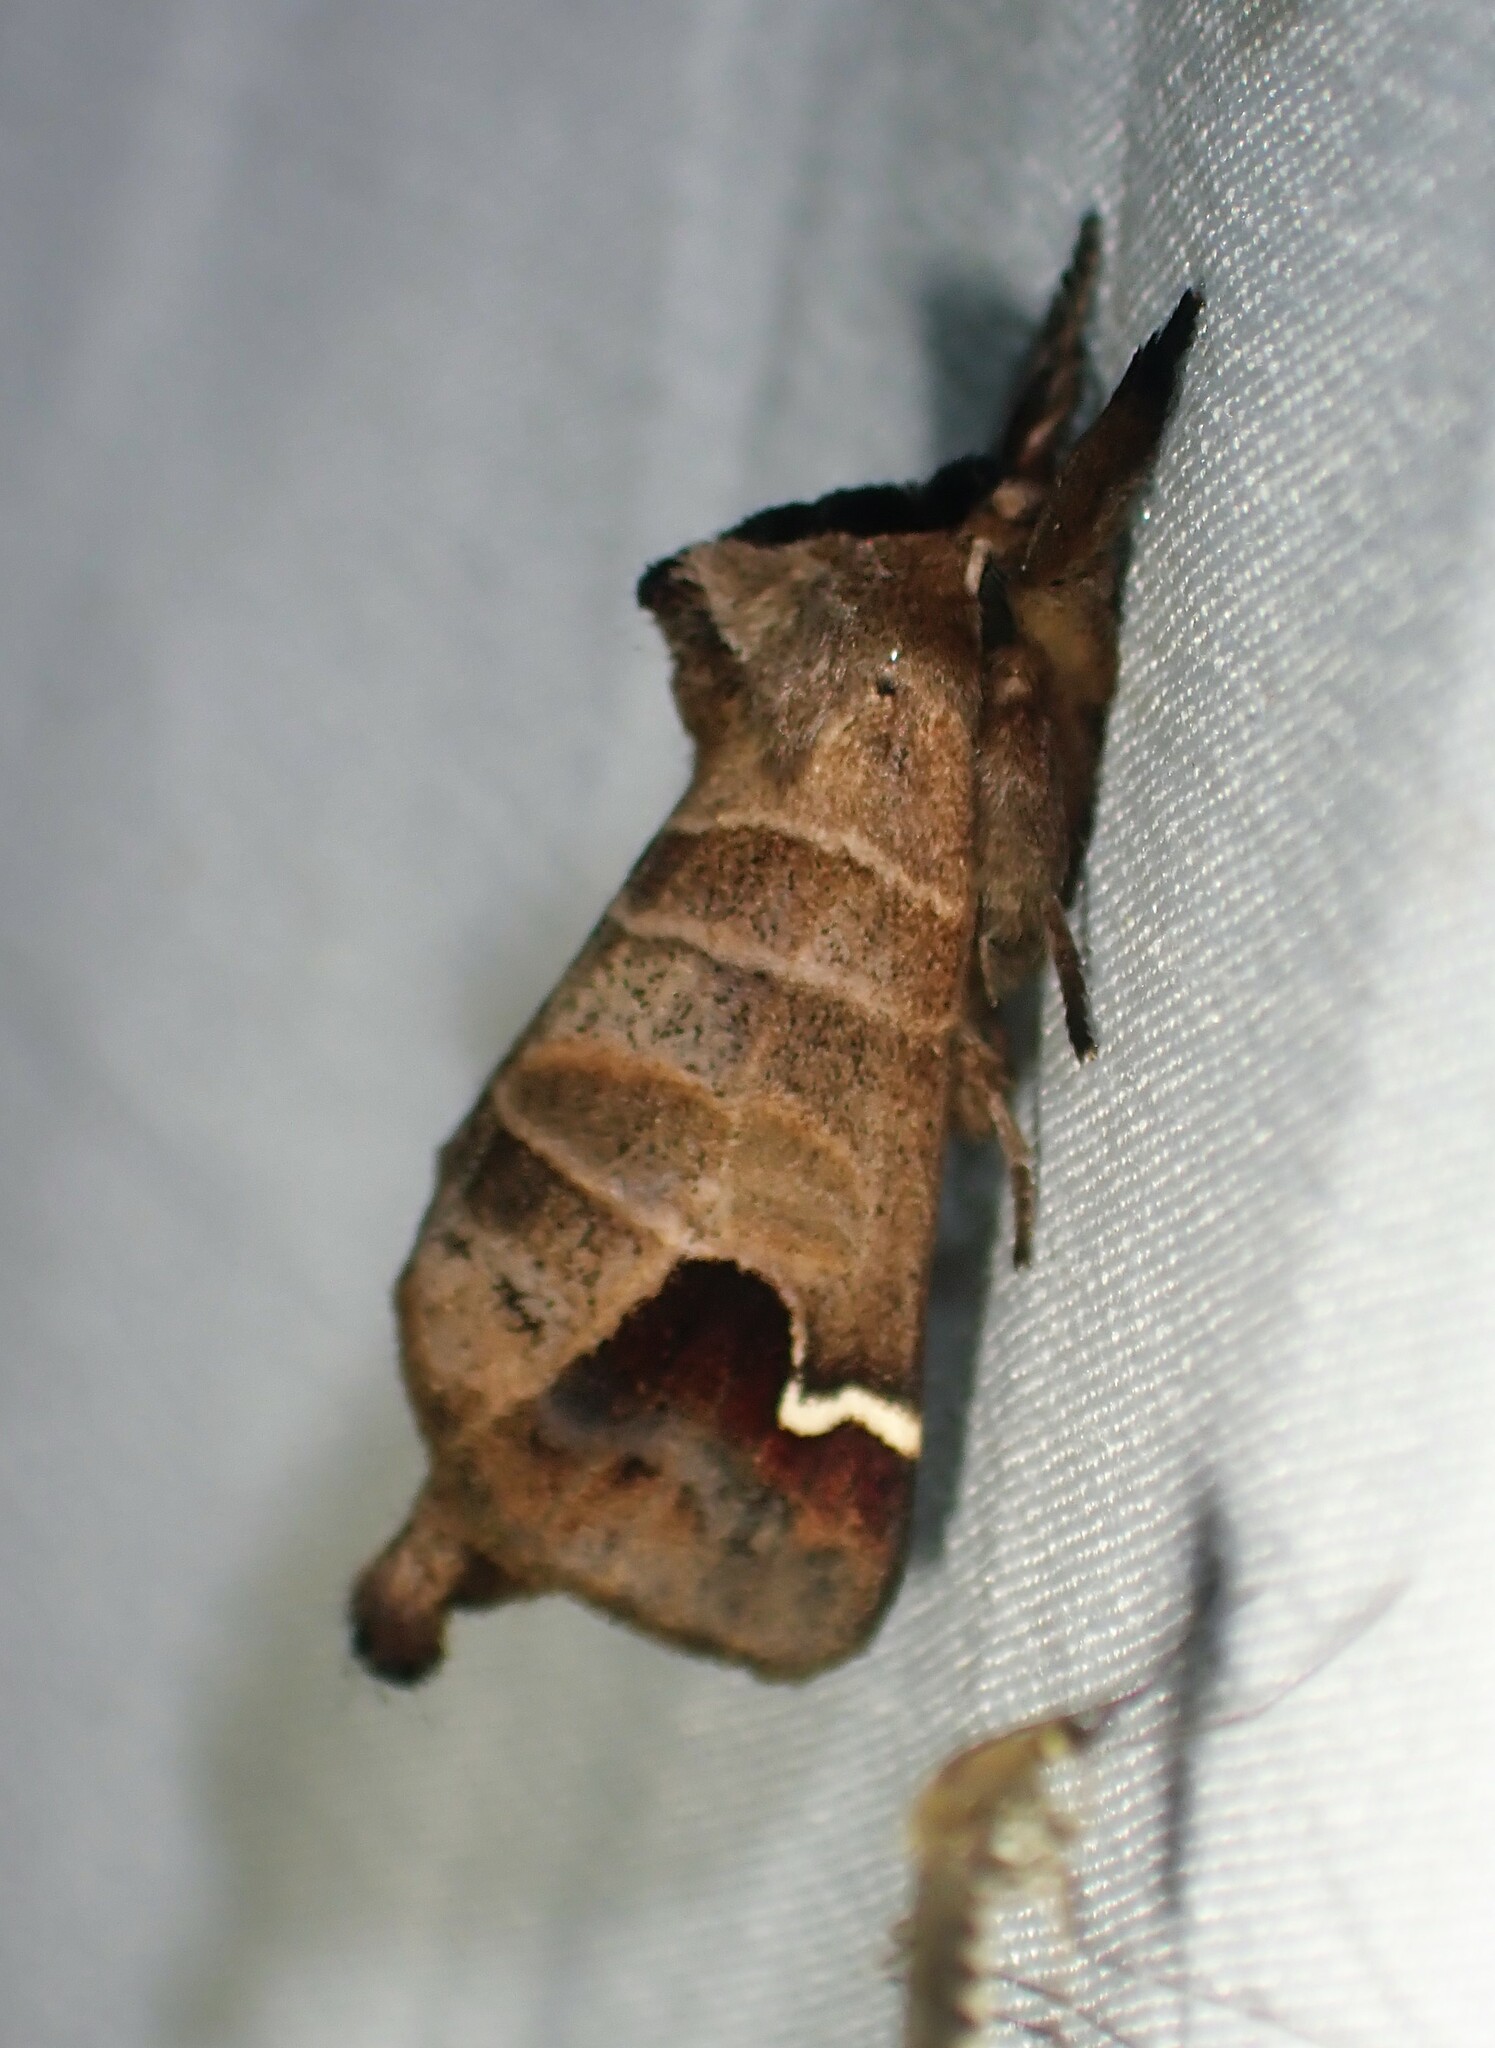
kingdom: Animalia
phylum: Arthropoda
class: Insecta
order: Lepidoptera
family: Notodontidae
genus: Clostera
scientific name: Clostera albosigma
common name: Sigmoid prominent
